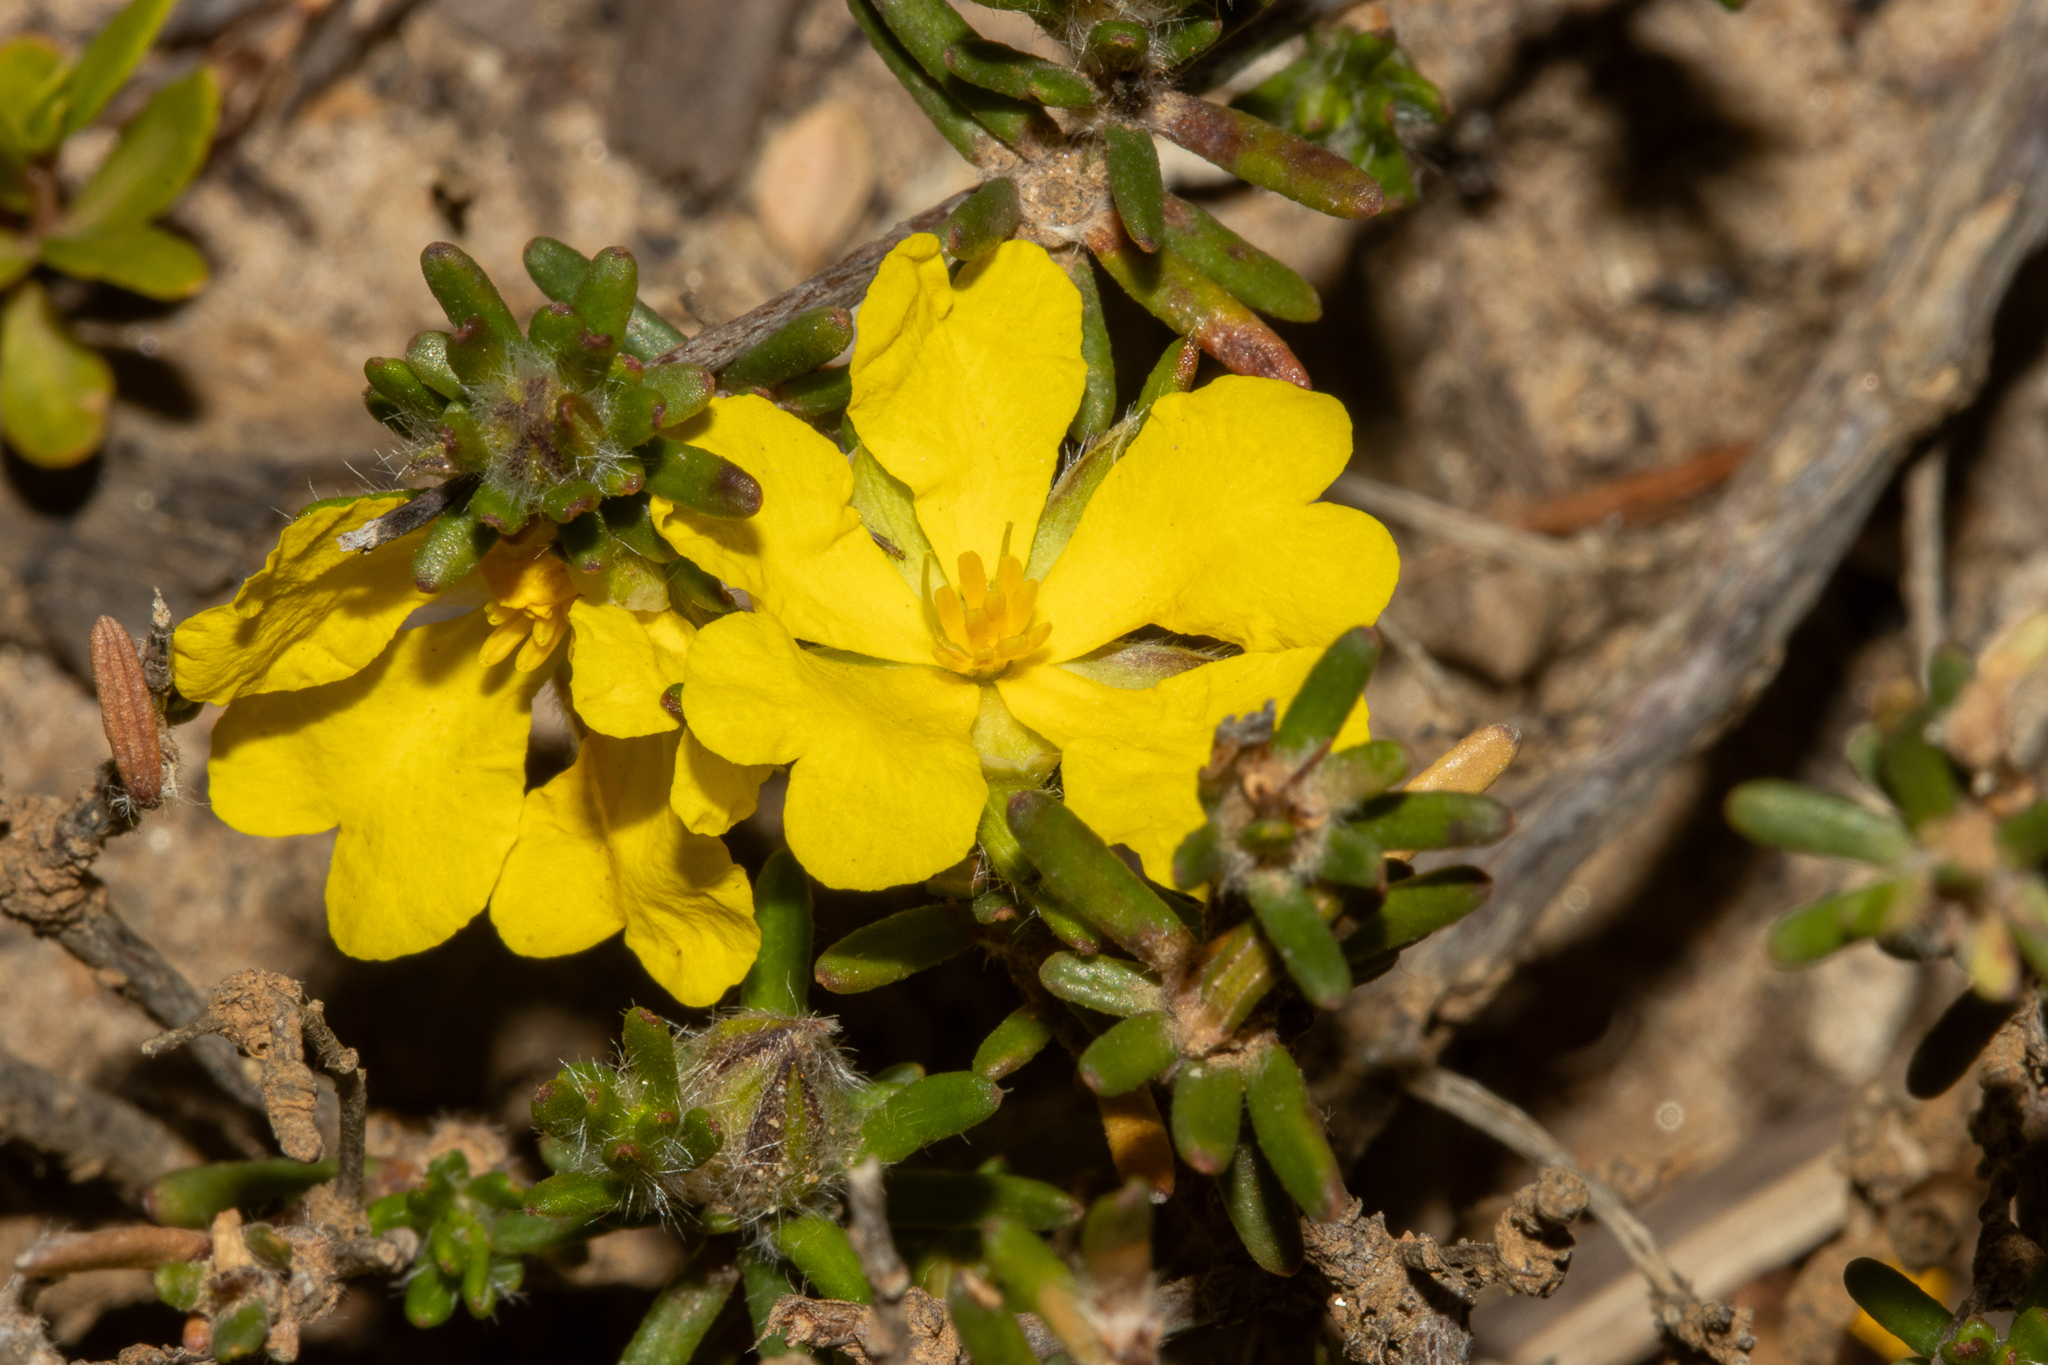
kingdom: Plantae
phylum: Tracheophyta
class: Magnoliopsida
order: Dilleniales
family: Dilleniaceae
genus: Hibbertia
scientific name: Hibbertia paeninsularis
